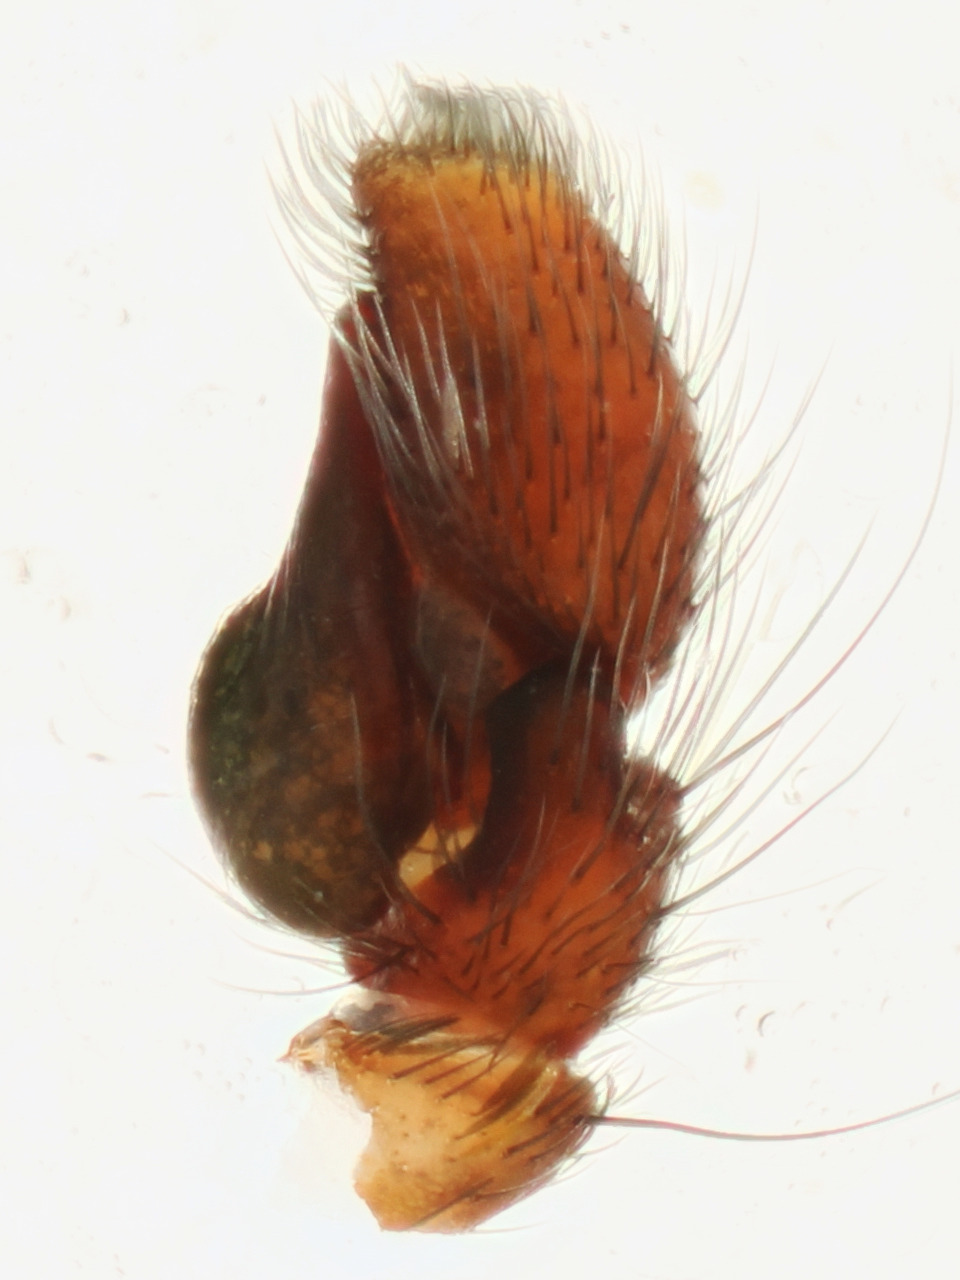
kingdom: Animalia
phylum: Arthropoda
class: Arachnida
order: Araneae
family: Salticidae
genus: Nycerella
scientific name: Nycerella decorata
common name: Jumping spiders
